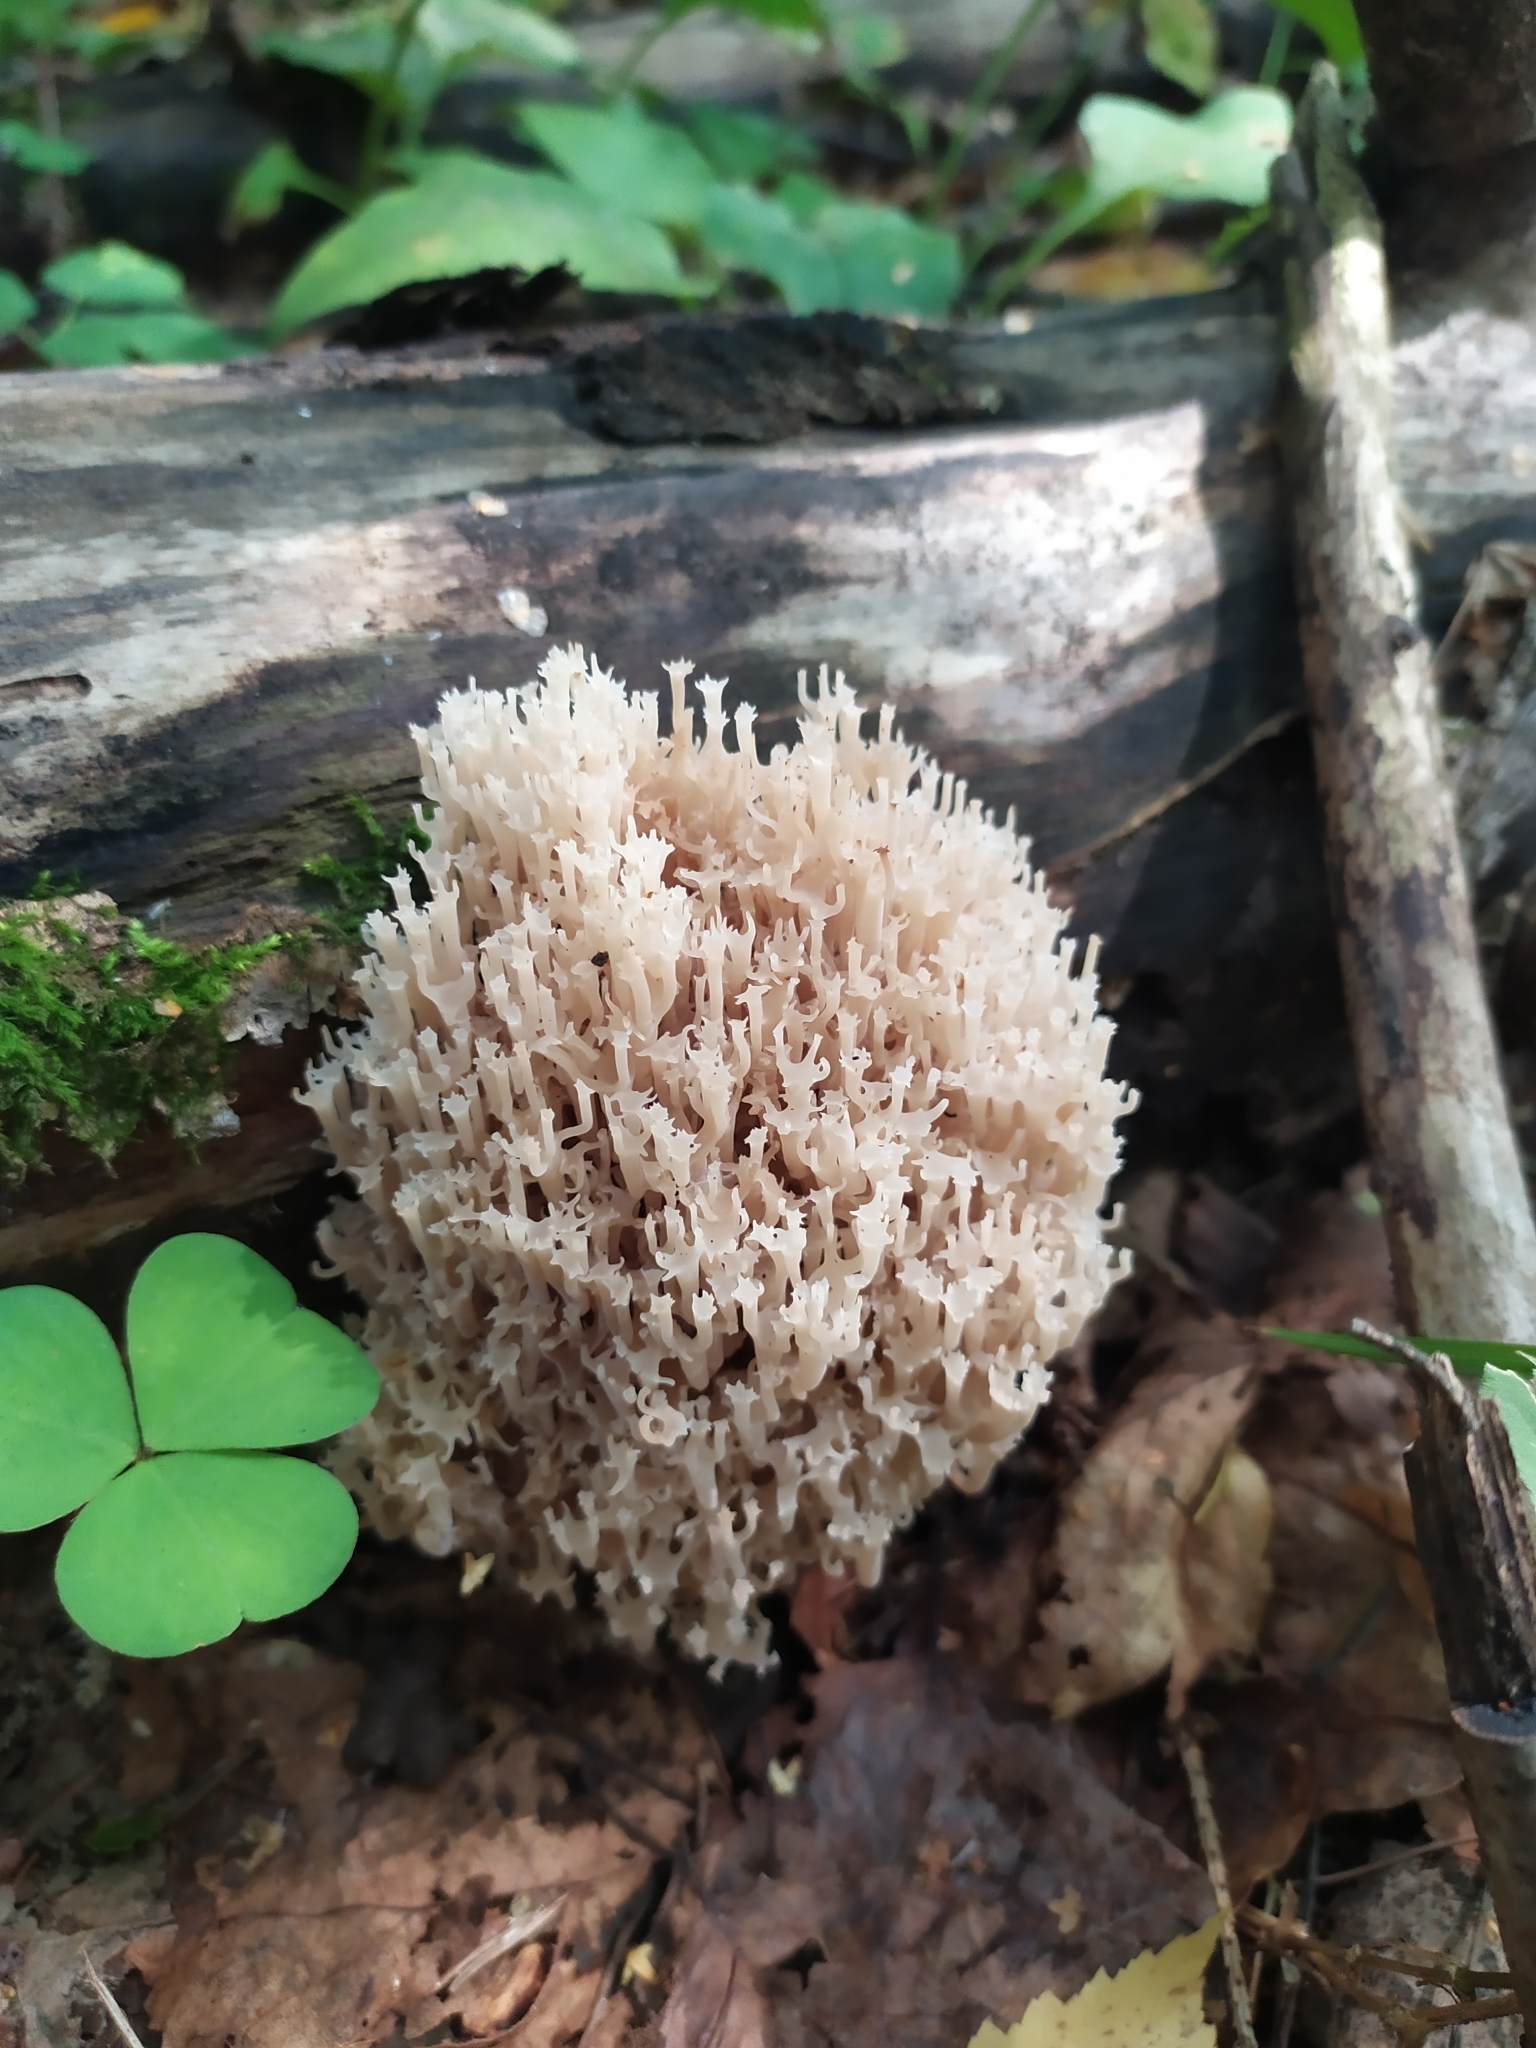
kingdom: Fungi
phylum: Basidiomycota
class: Agaricomycetes
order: Russulales
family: Auriscalpiaceae
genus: Artomyces
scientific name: Artomyces pyxidatus
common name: Crown-tipped coral fungus
